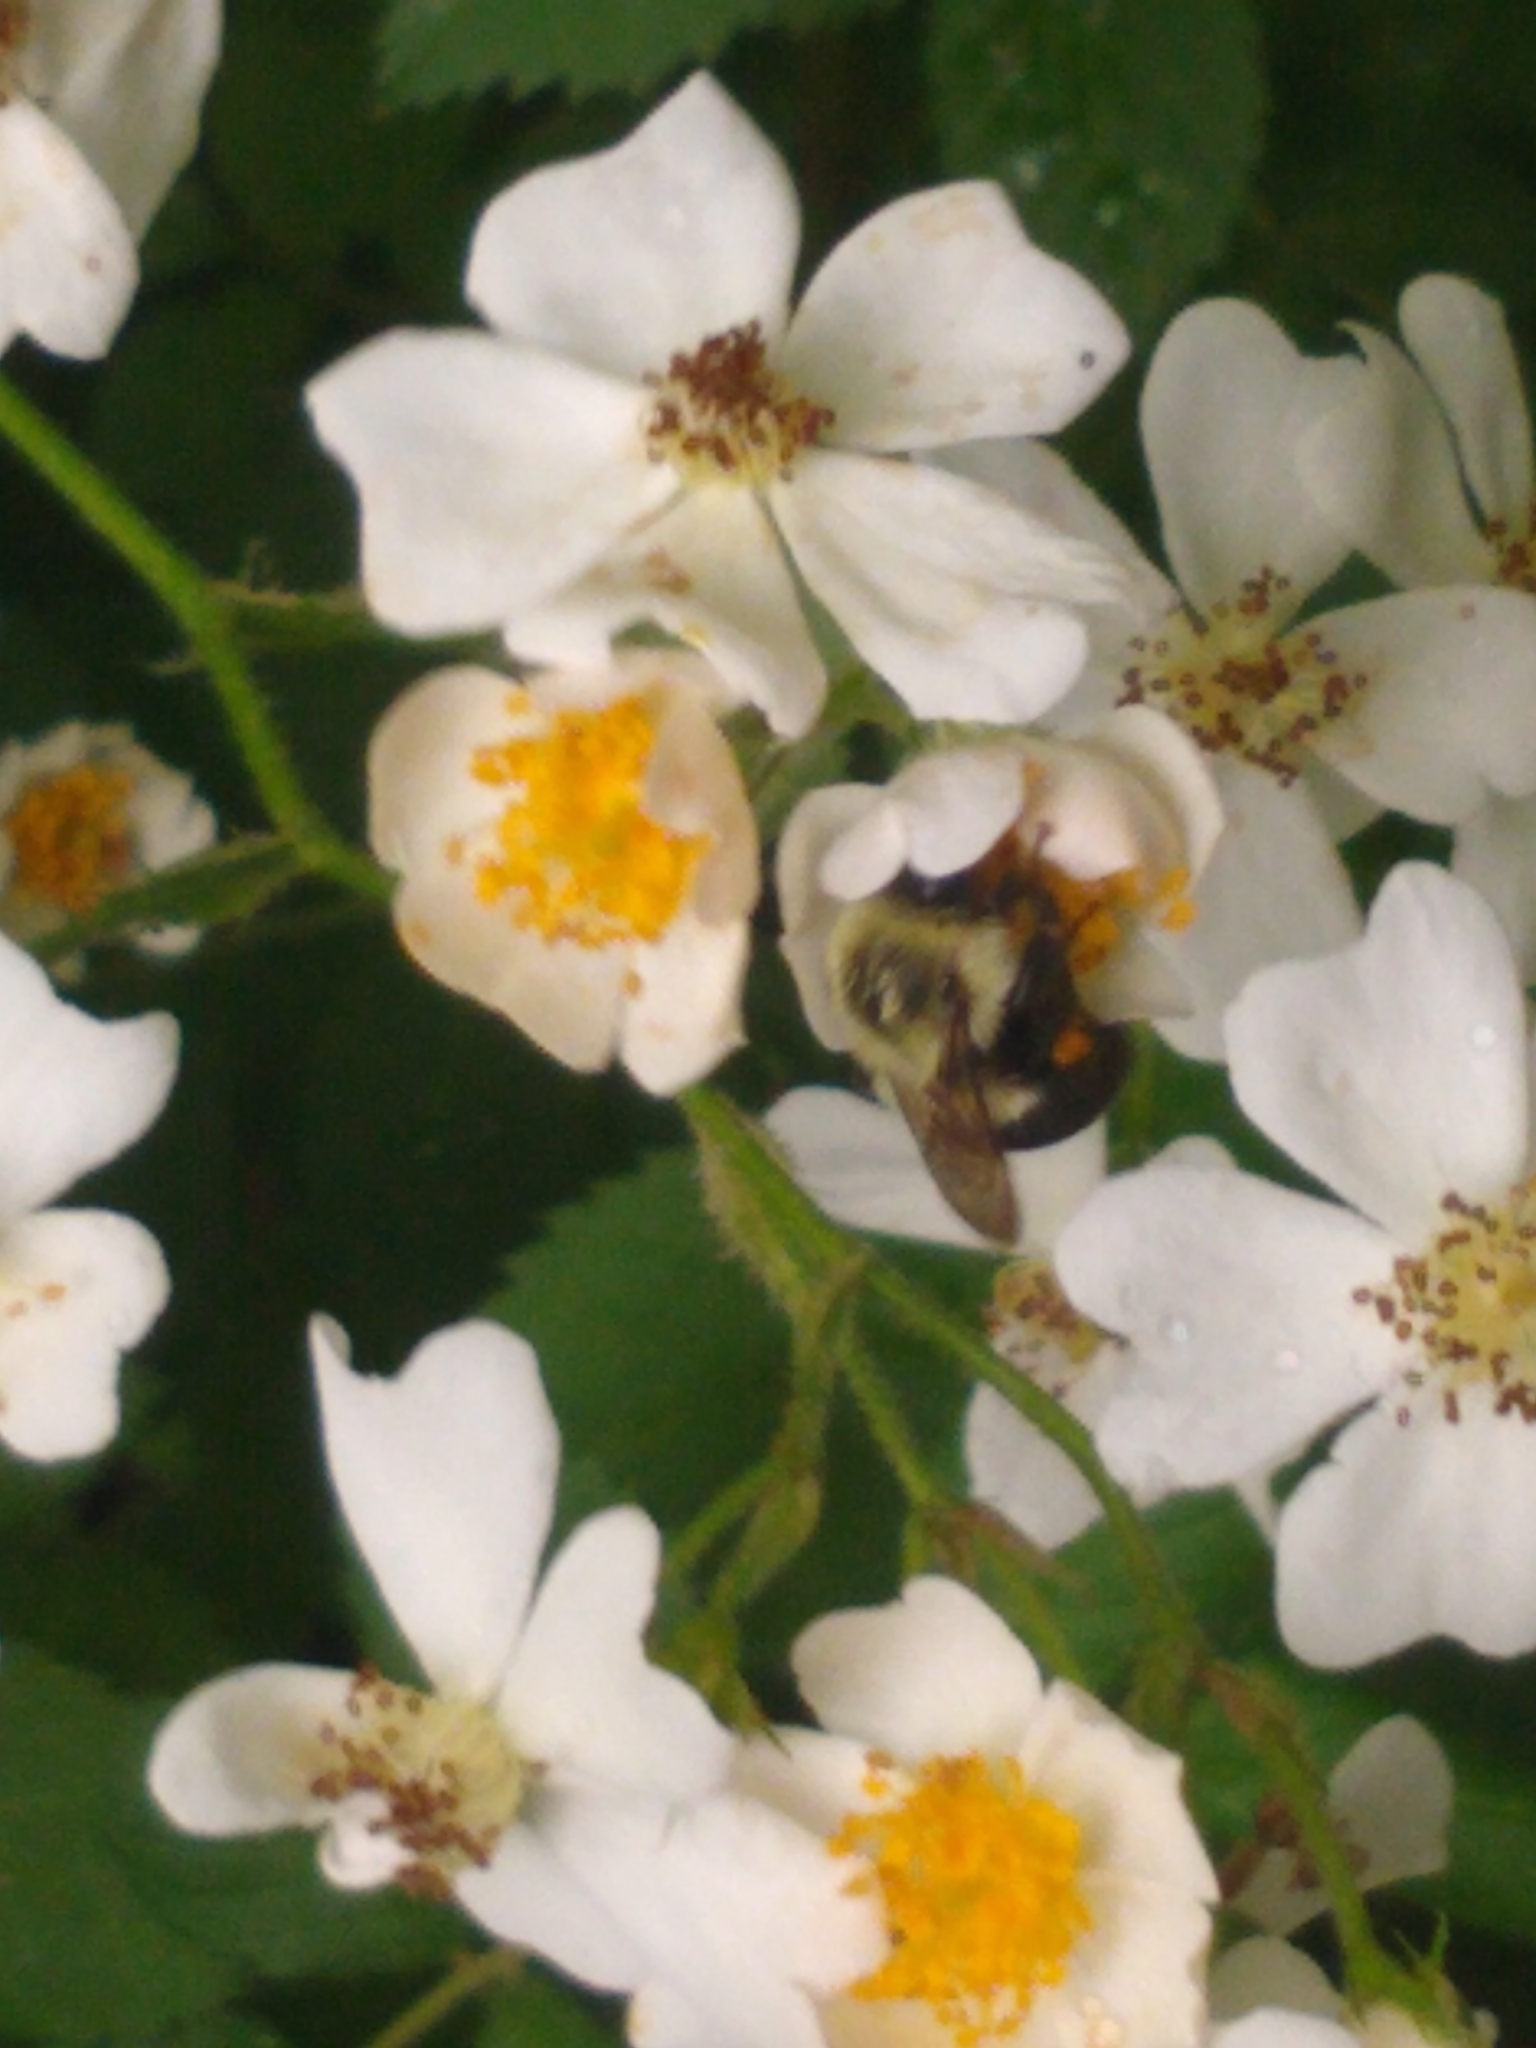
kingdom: Animalia
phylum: Arthropoda
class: Insecta
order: Hymenoptera
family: Apidae
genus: Bombus
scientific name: Bombus impatiens
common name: Common eastern bumble bee
